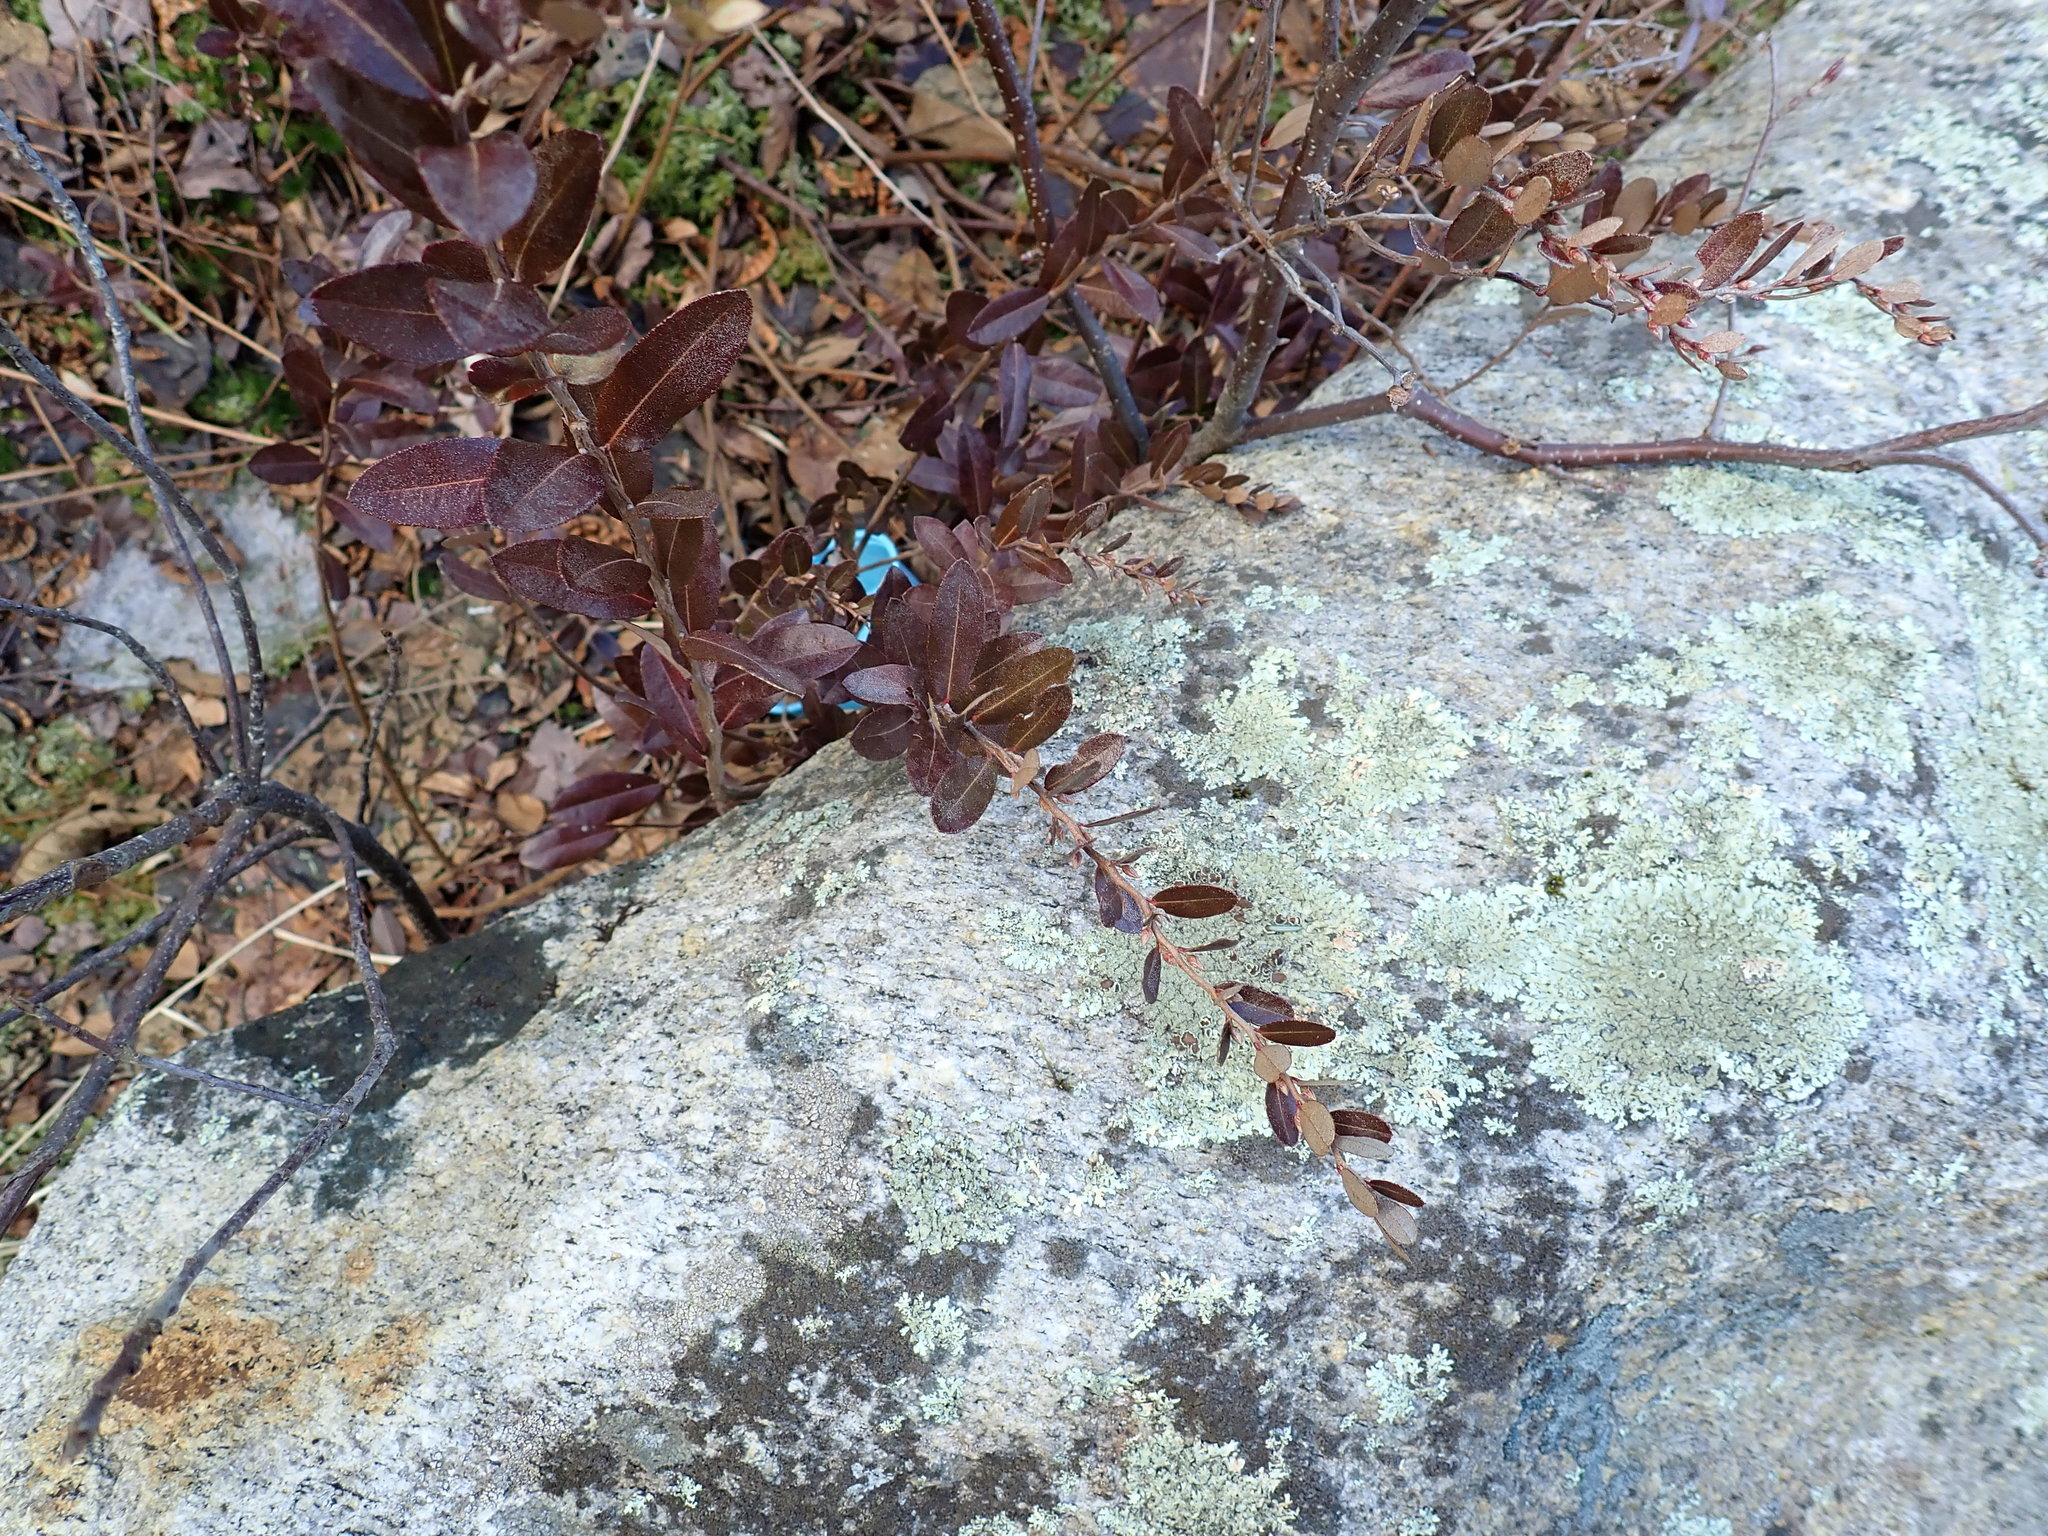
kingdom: Plantae
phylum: Tracheophyta
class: Magnoliopsida
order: Ericales
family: Ericaceae
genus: Chamaedaphne
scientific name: Chamaedaphne calyculata
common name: Leatherleaf
